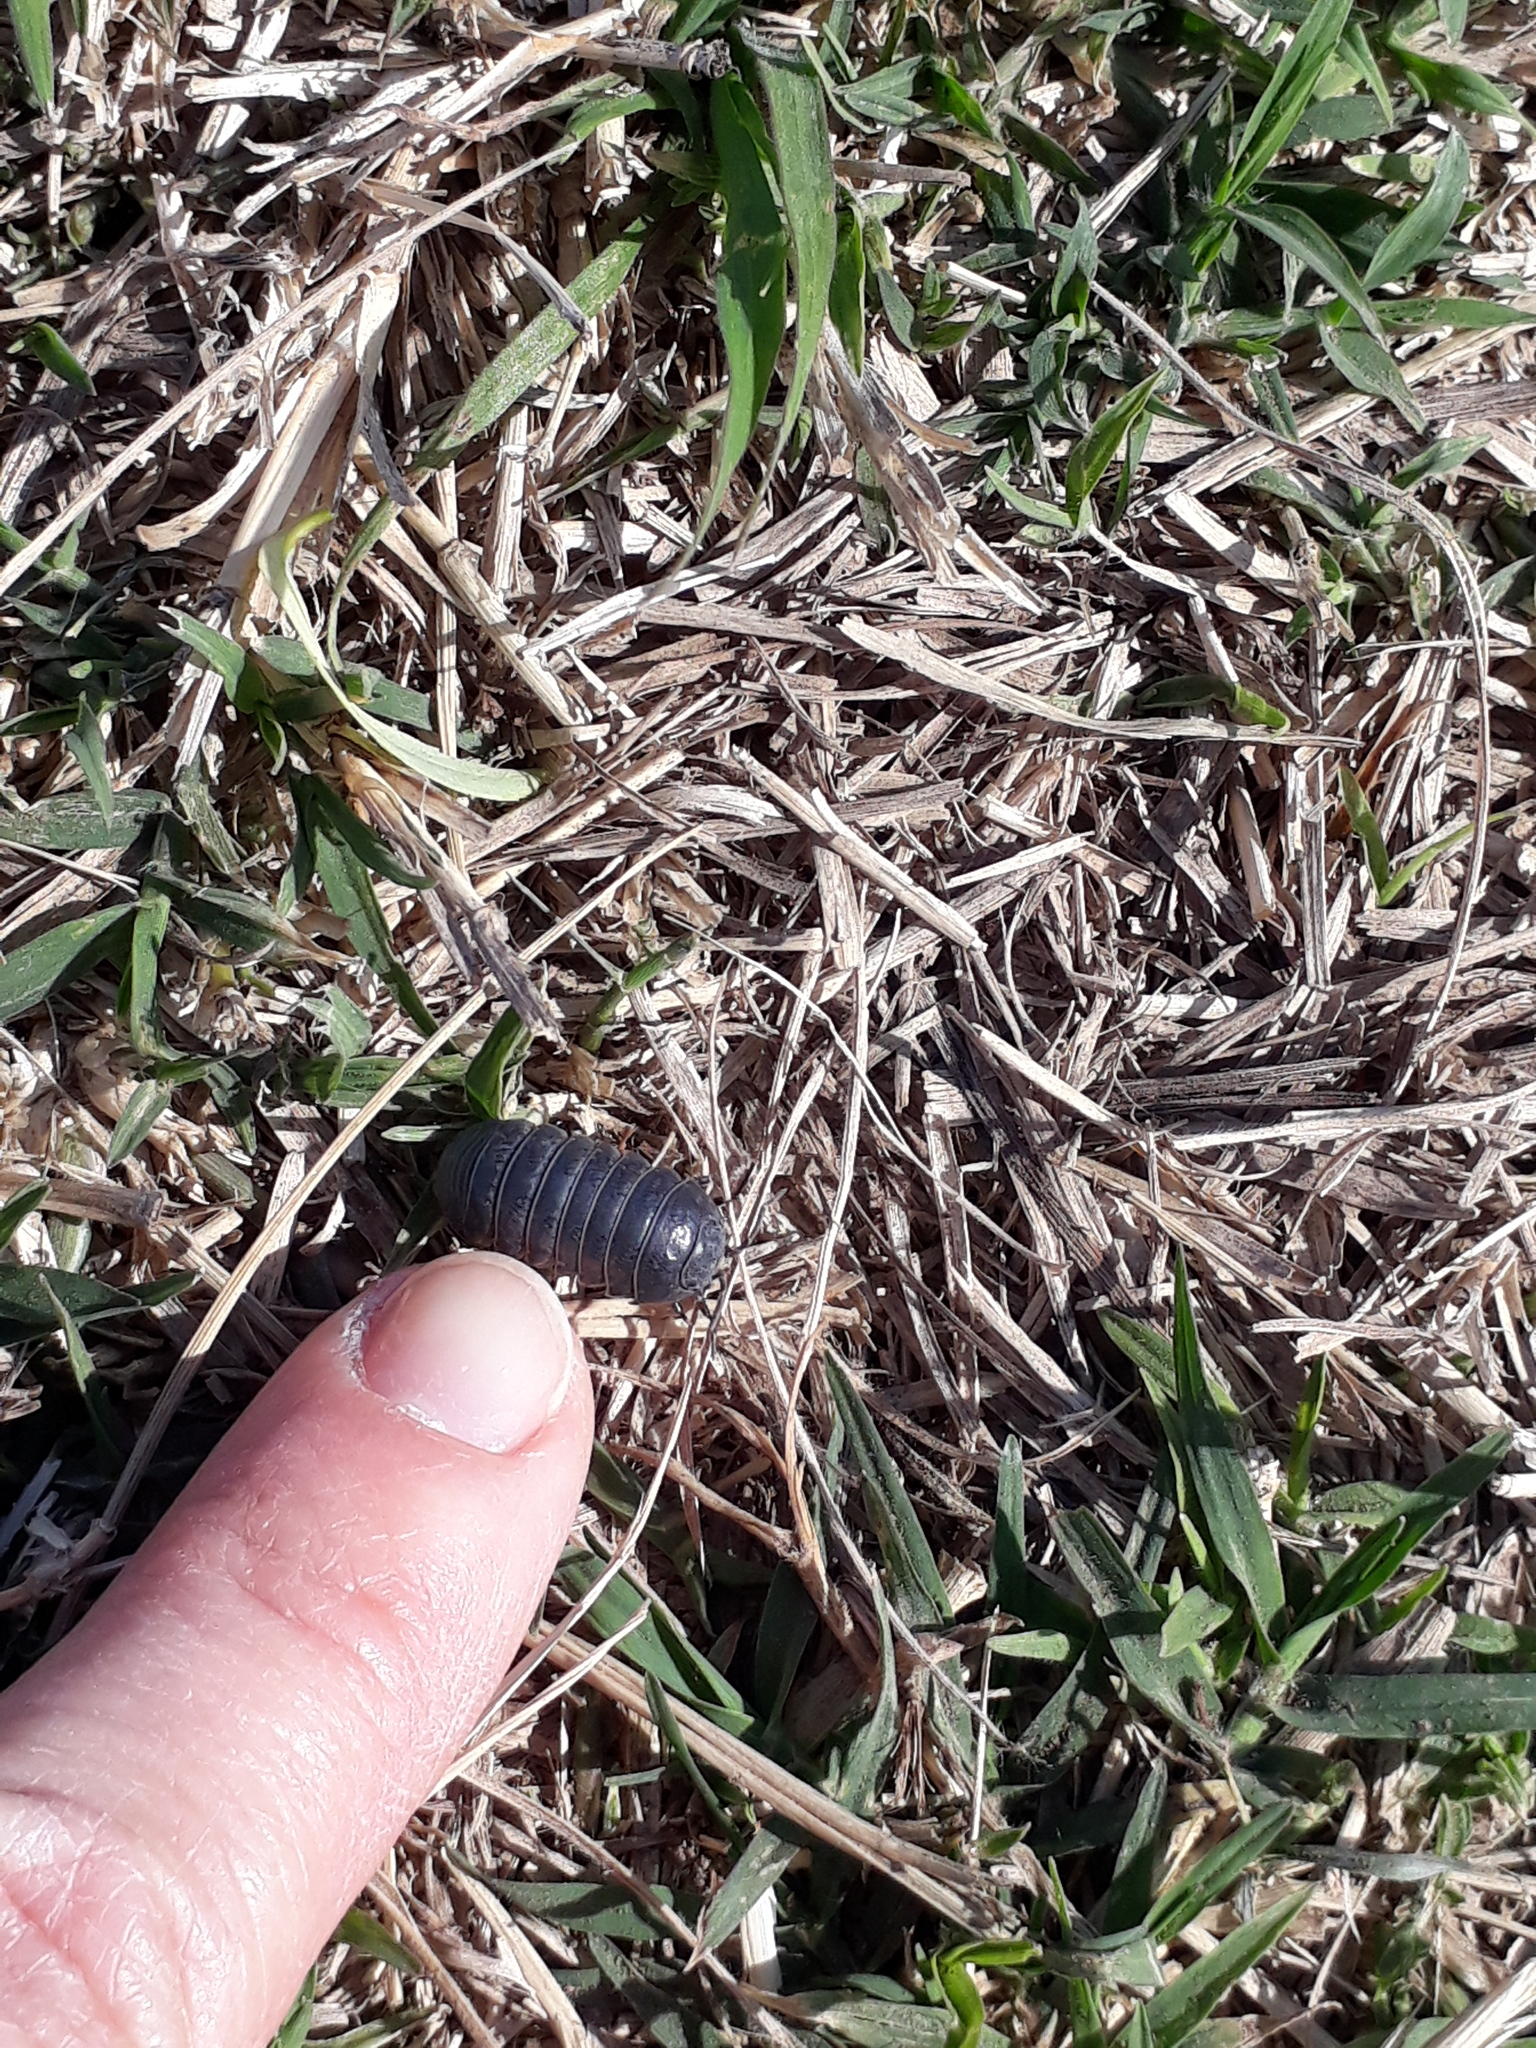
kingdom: Animalia
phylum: Arthropoda
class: Malacostraca
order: Isopoda
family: Armadillidiidae
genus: Armadillidium
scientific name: Armadillidium vulgare
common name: Common pill woodlouse
